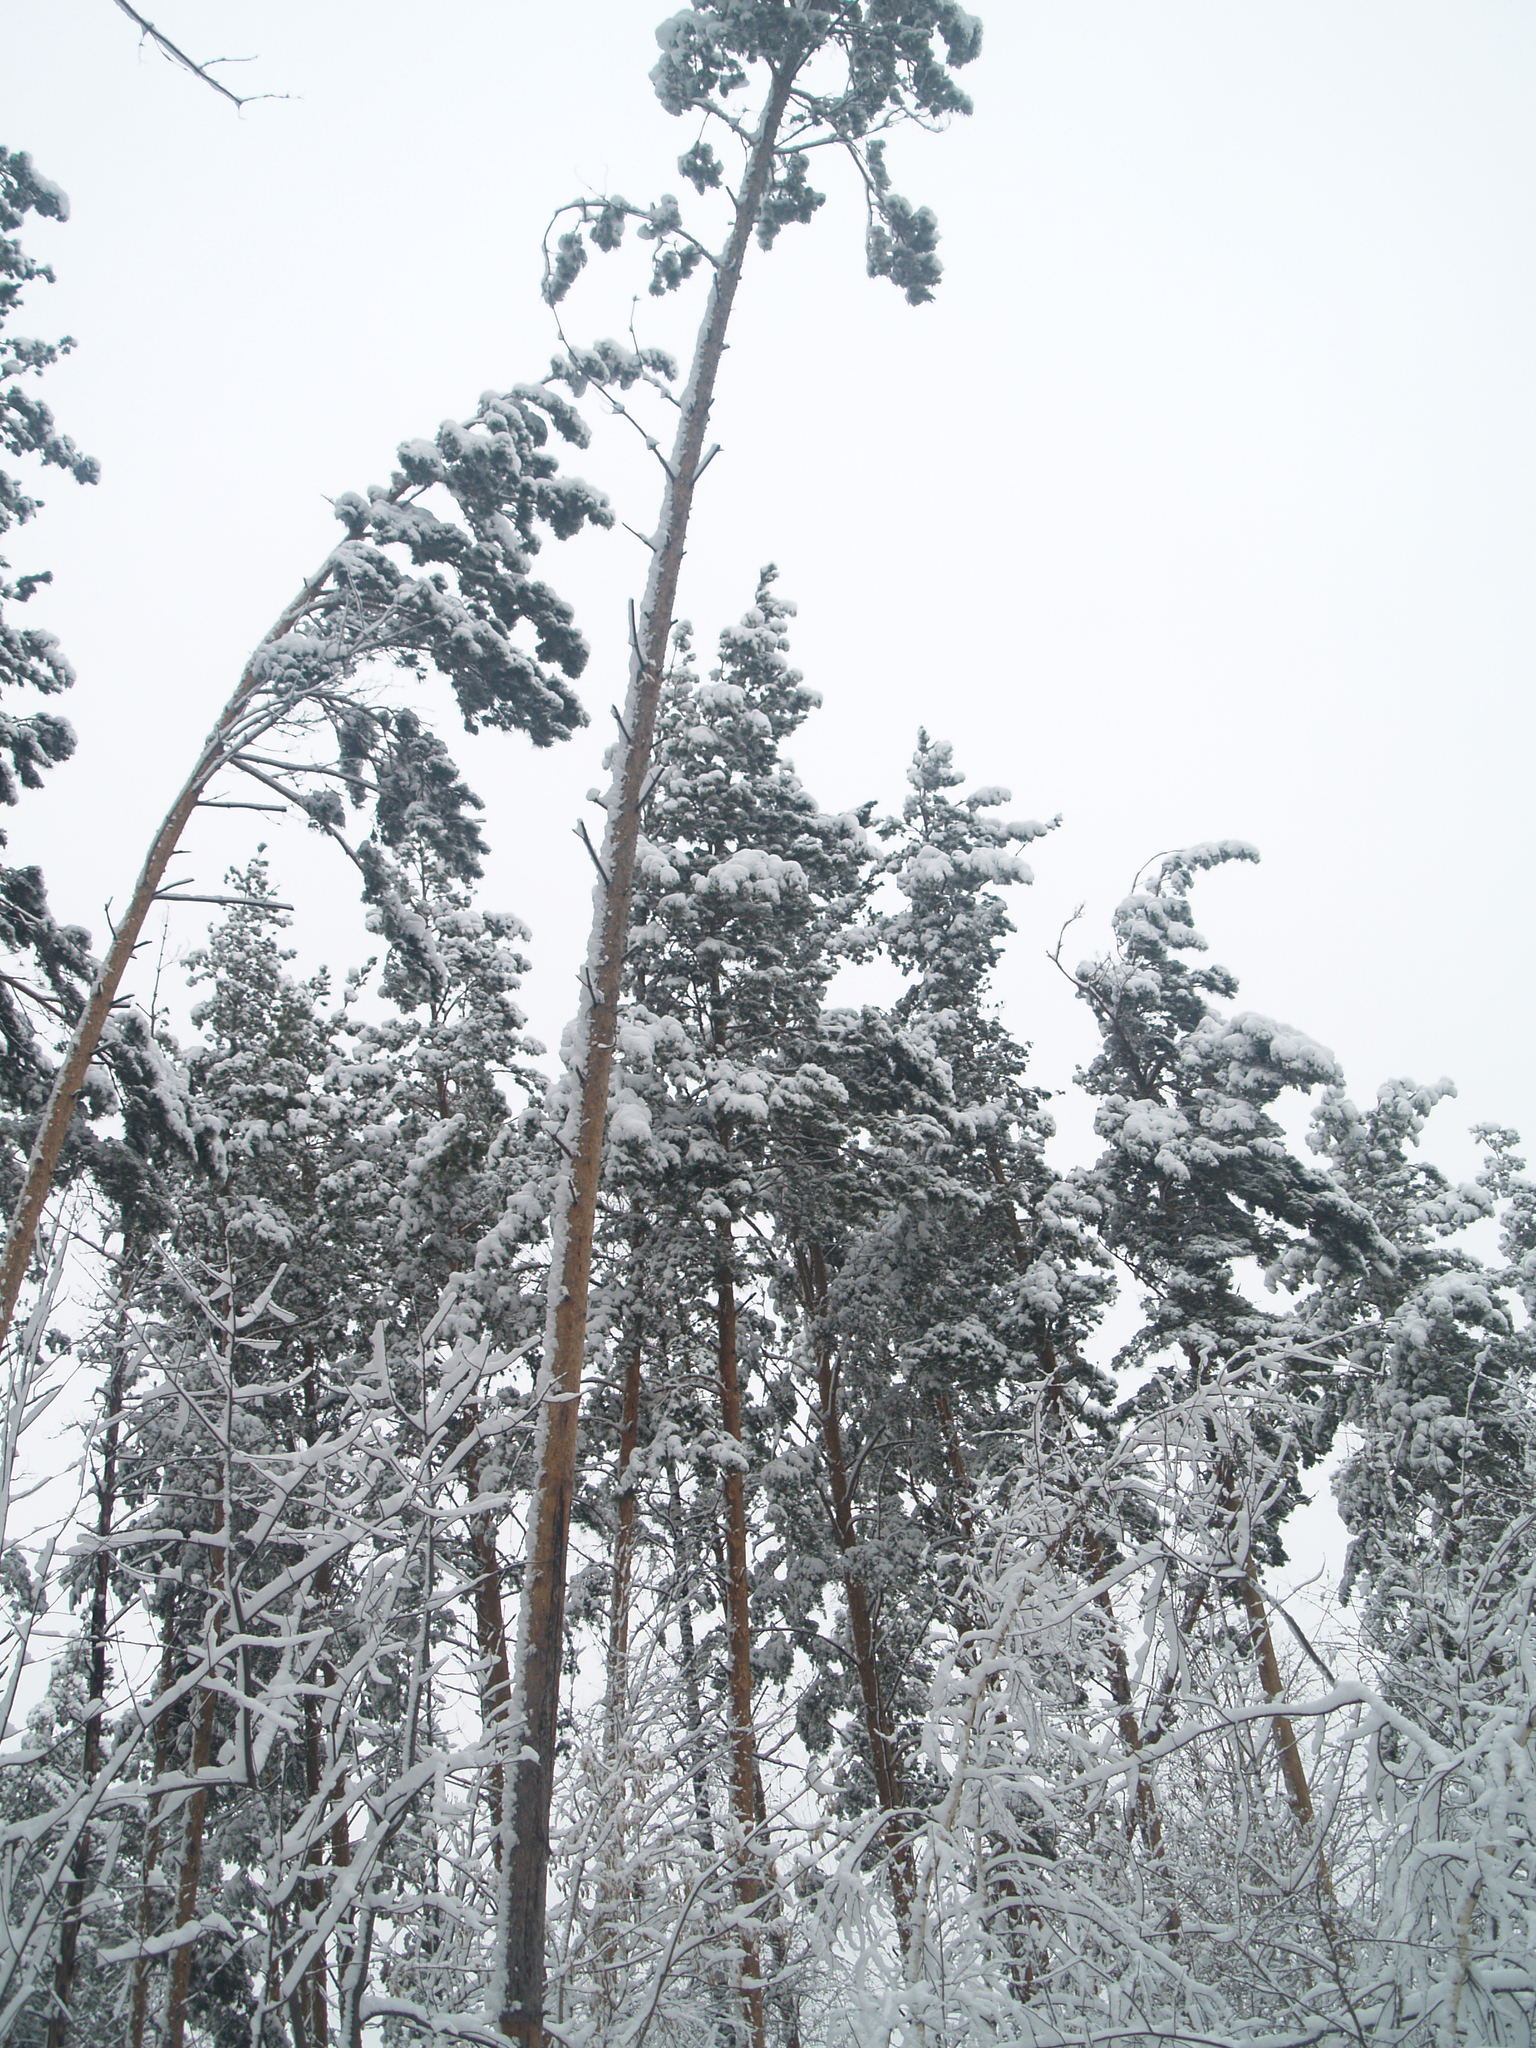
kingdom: Plantae
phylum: Tracheophyta
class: Pinopsida
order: Pinales
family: Pinaceae
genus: Pinus
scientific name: Pinus sylvestris
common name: Scots pine
